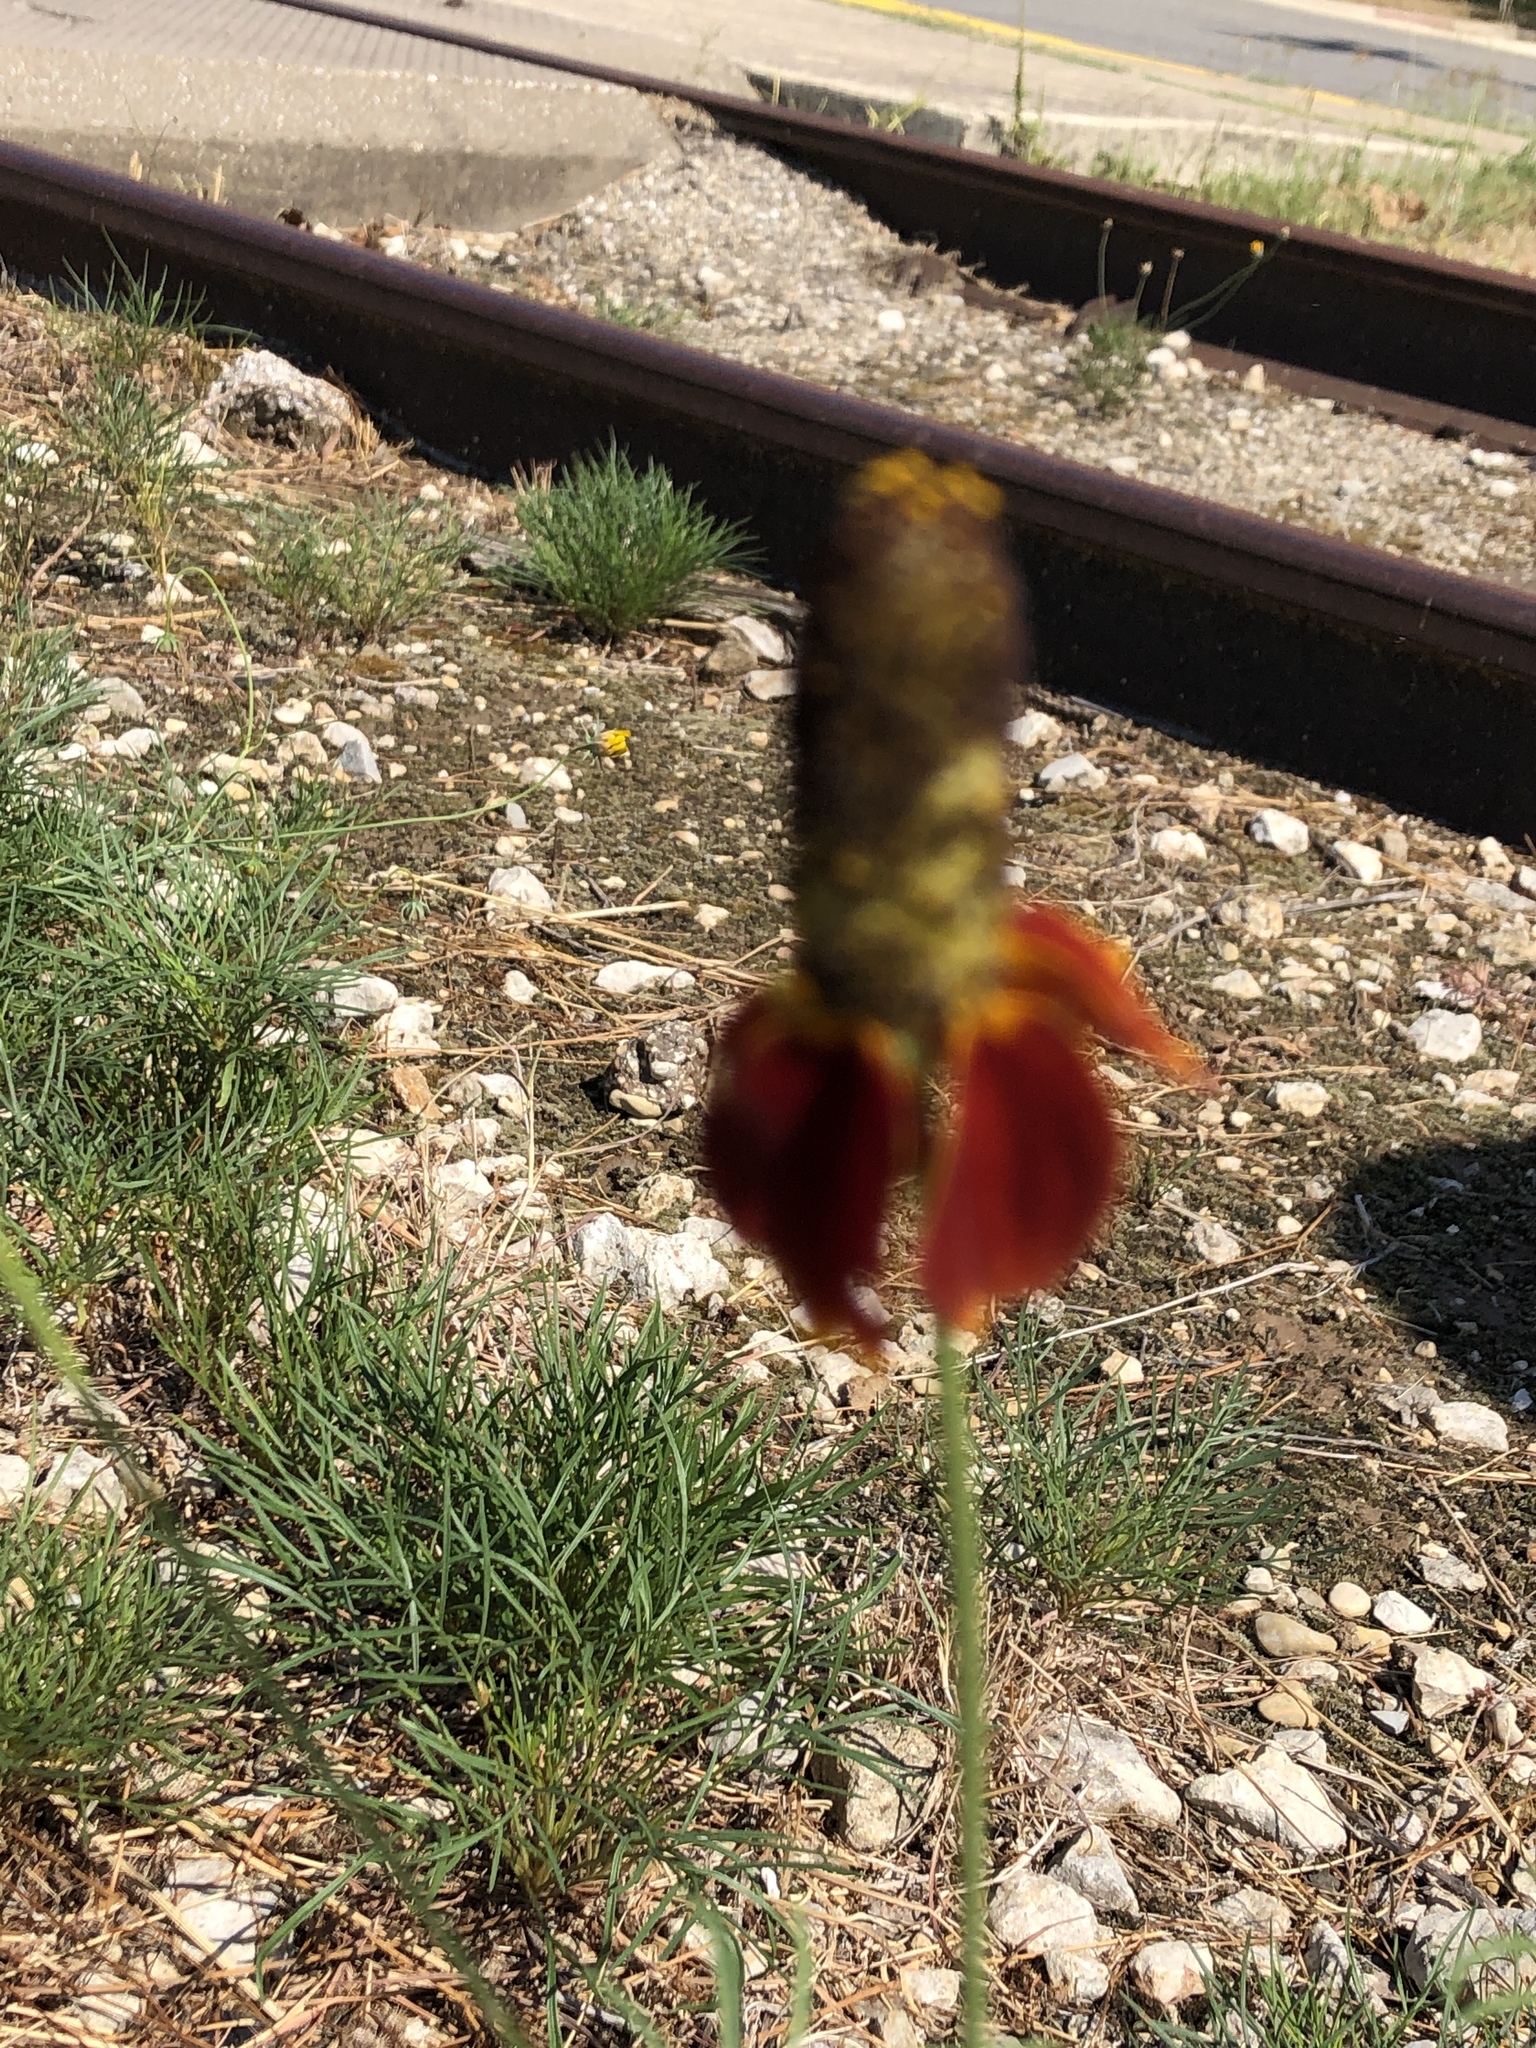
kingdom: Plantae
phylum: Tracheophyta
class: Magnoliopsida
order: Asterales
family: Asteraceae
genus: Ratibida
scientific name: Ratibida columnifera
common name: Prairie coneflower
